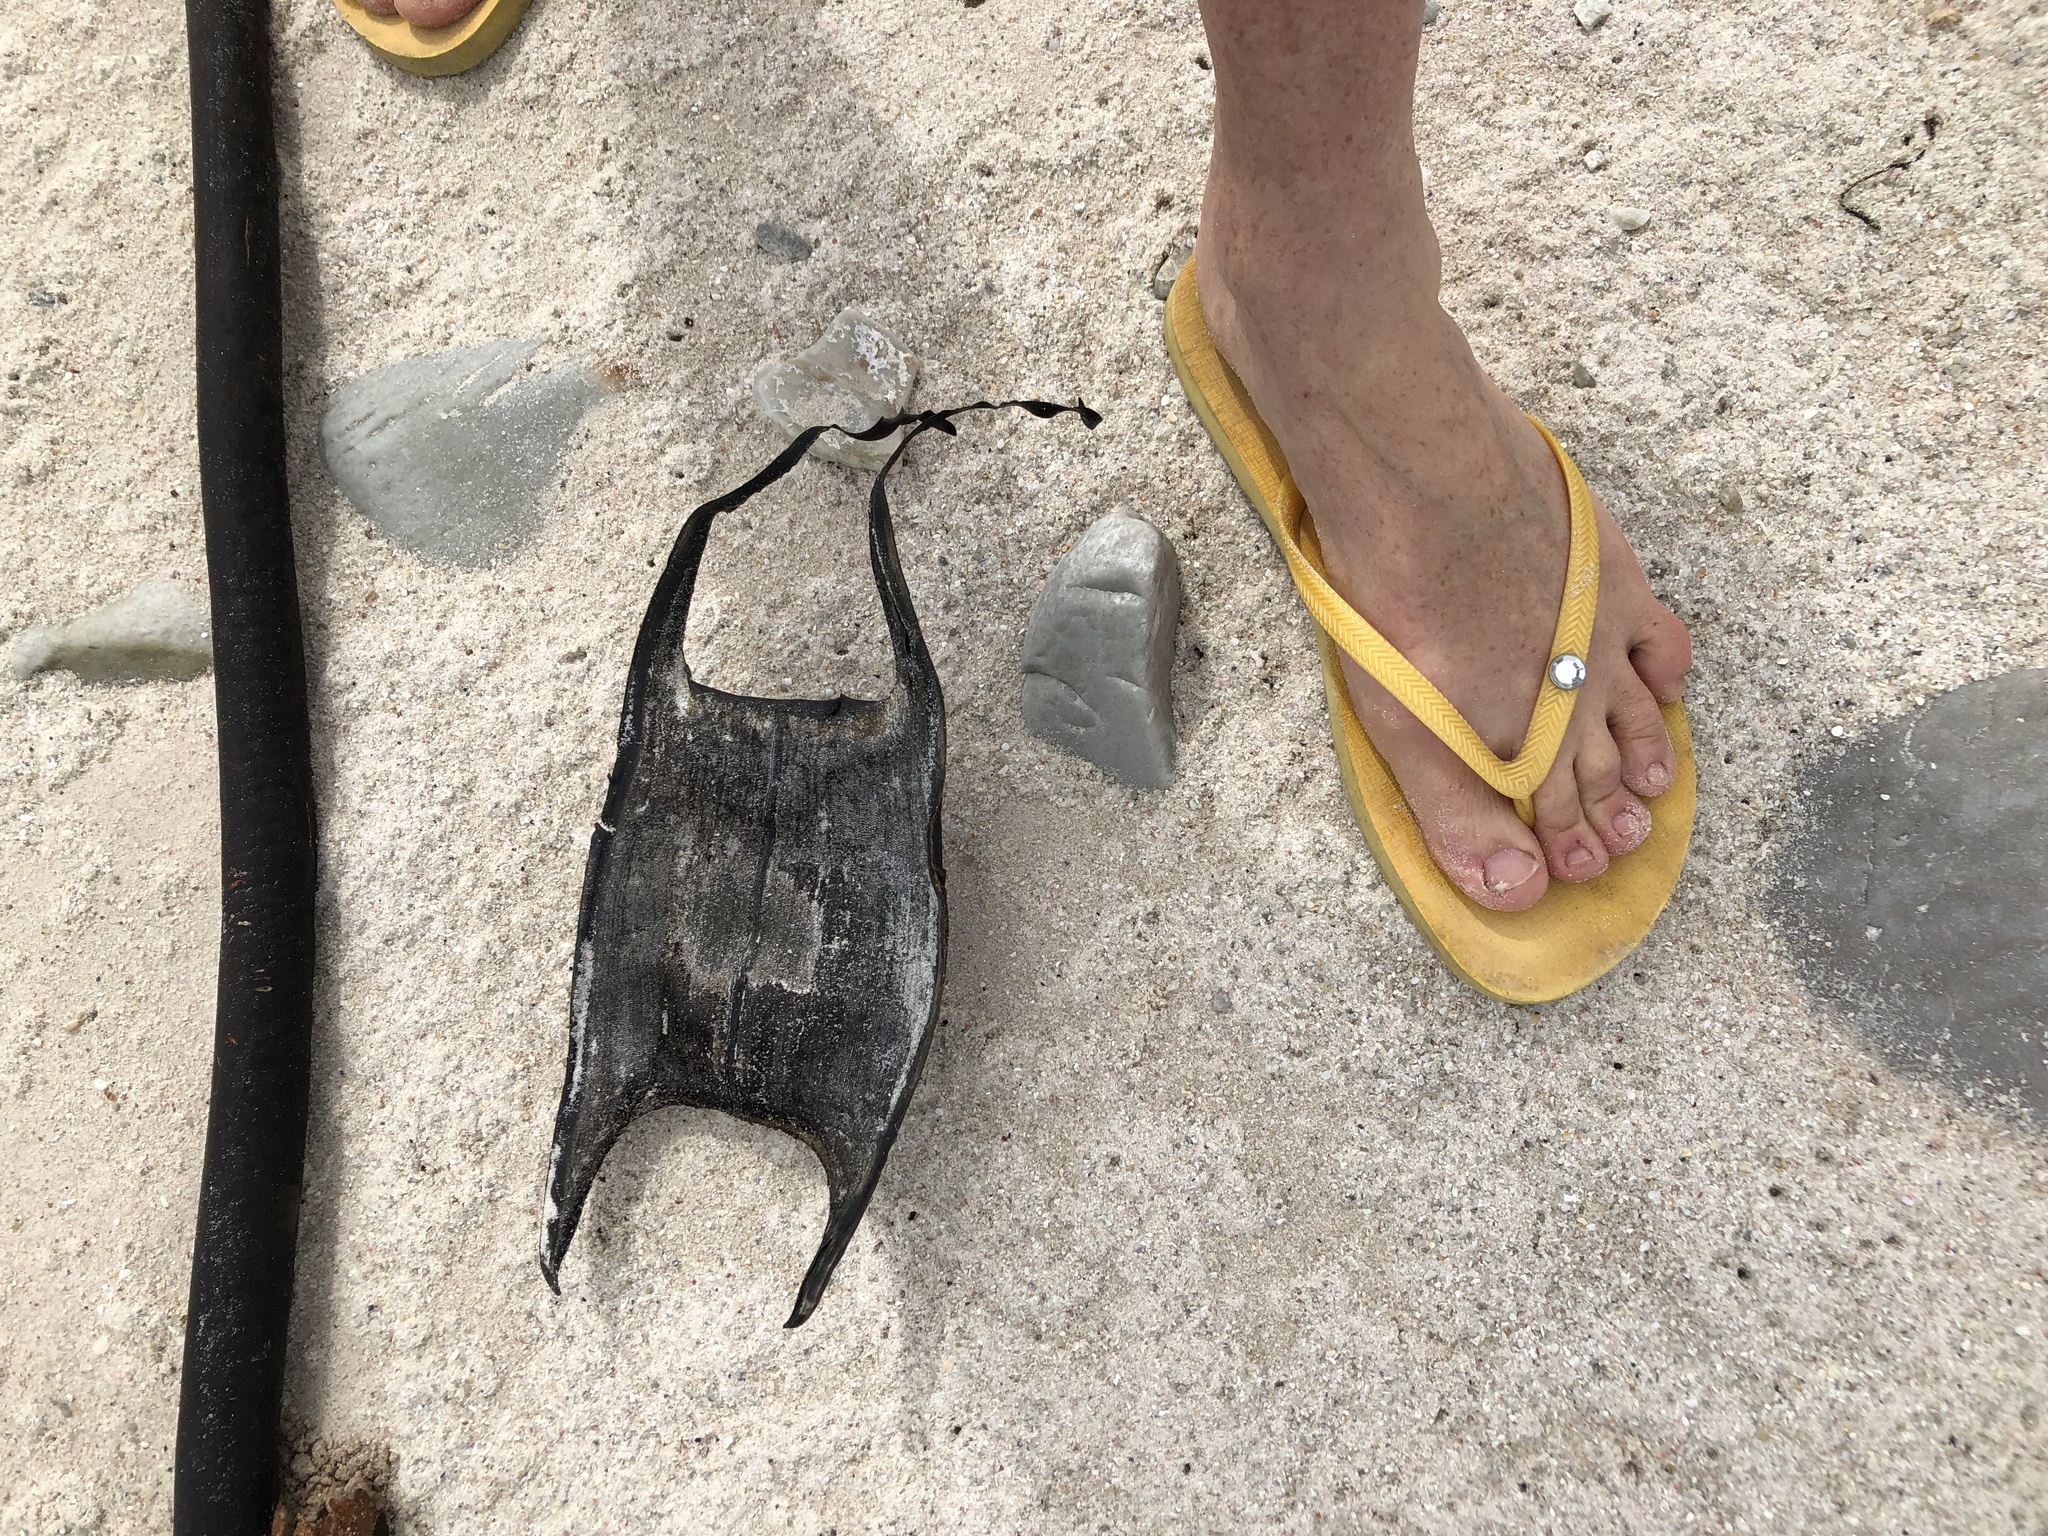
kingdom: Animalia
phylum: Chordata
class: Elasmobranchii
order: Rajiformes
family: Rajidae
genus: Rostroraja
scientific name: Rostroraja alba
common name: White skate
